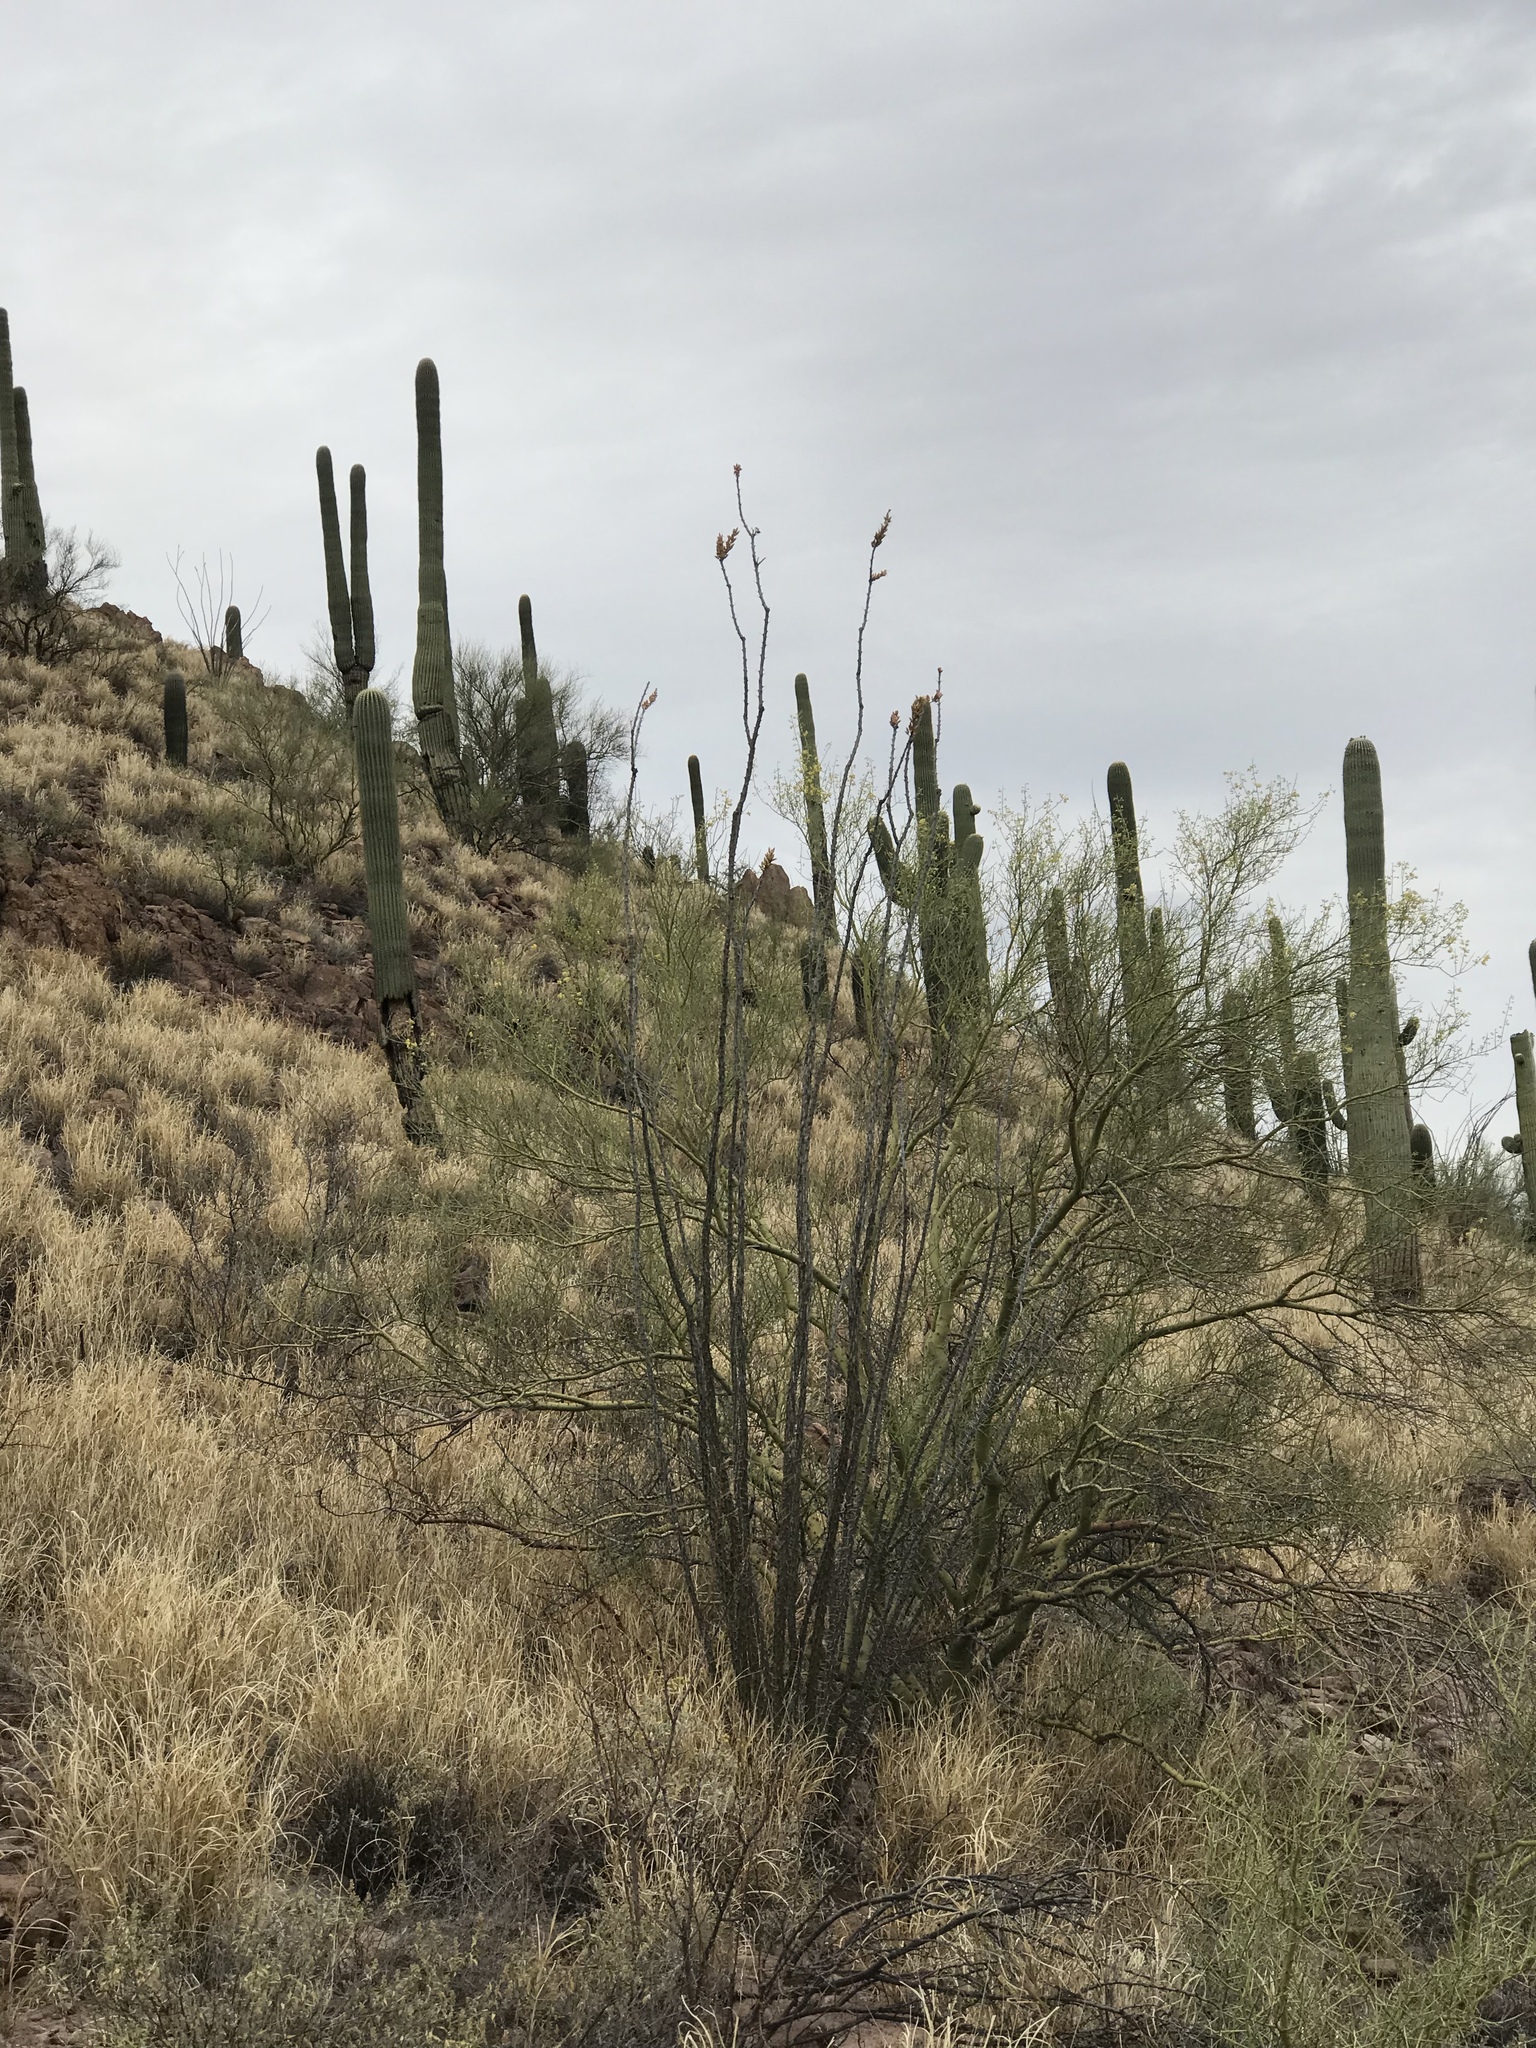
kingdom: Plantae
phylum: Tracheophyta
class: Magnoliopsida
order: Ericales
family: Fouquieriaceae
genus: Fouquieria
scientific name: Fouquieria splendens
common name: Vine-cactus
